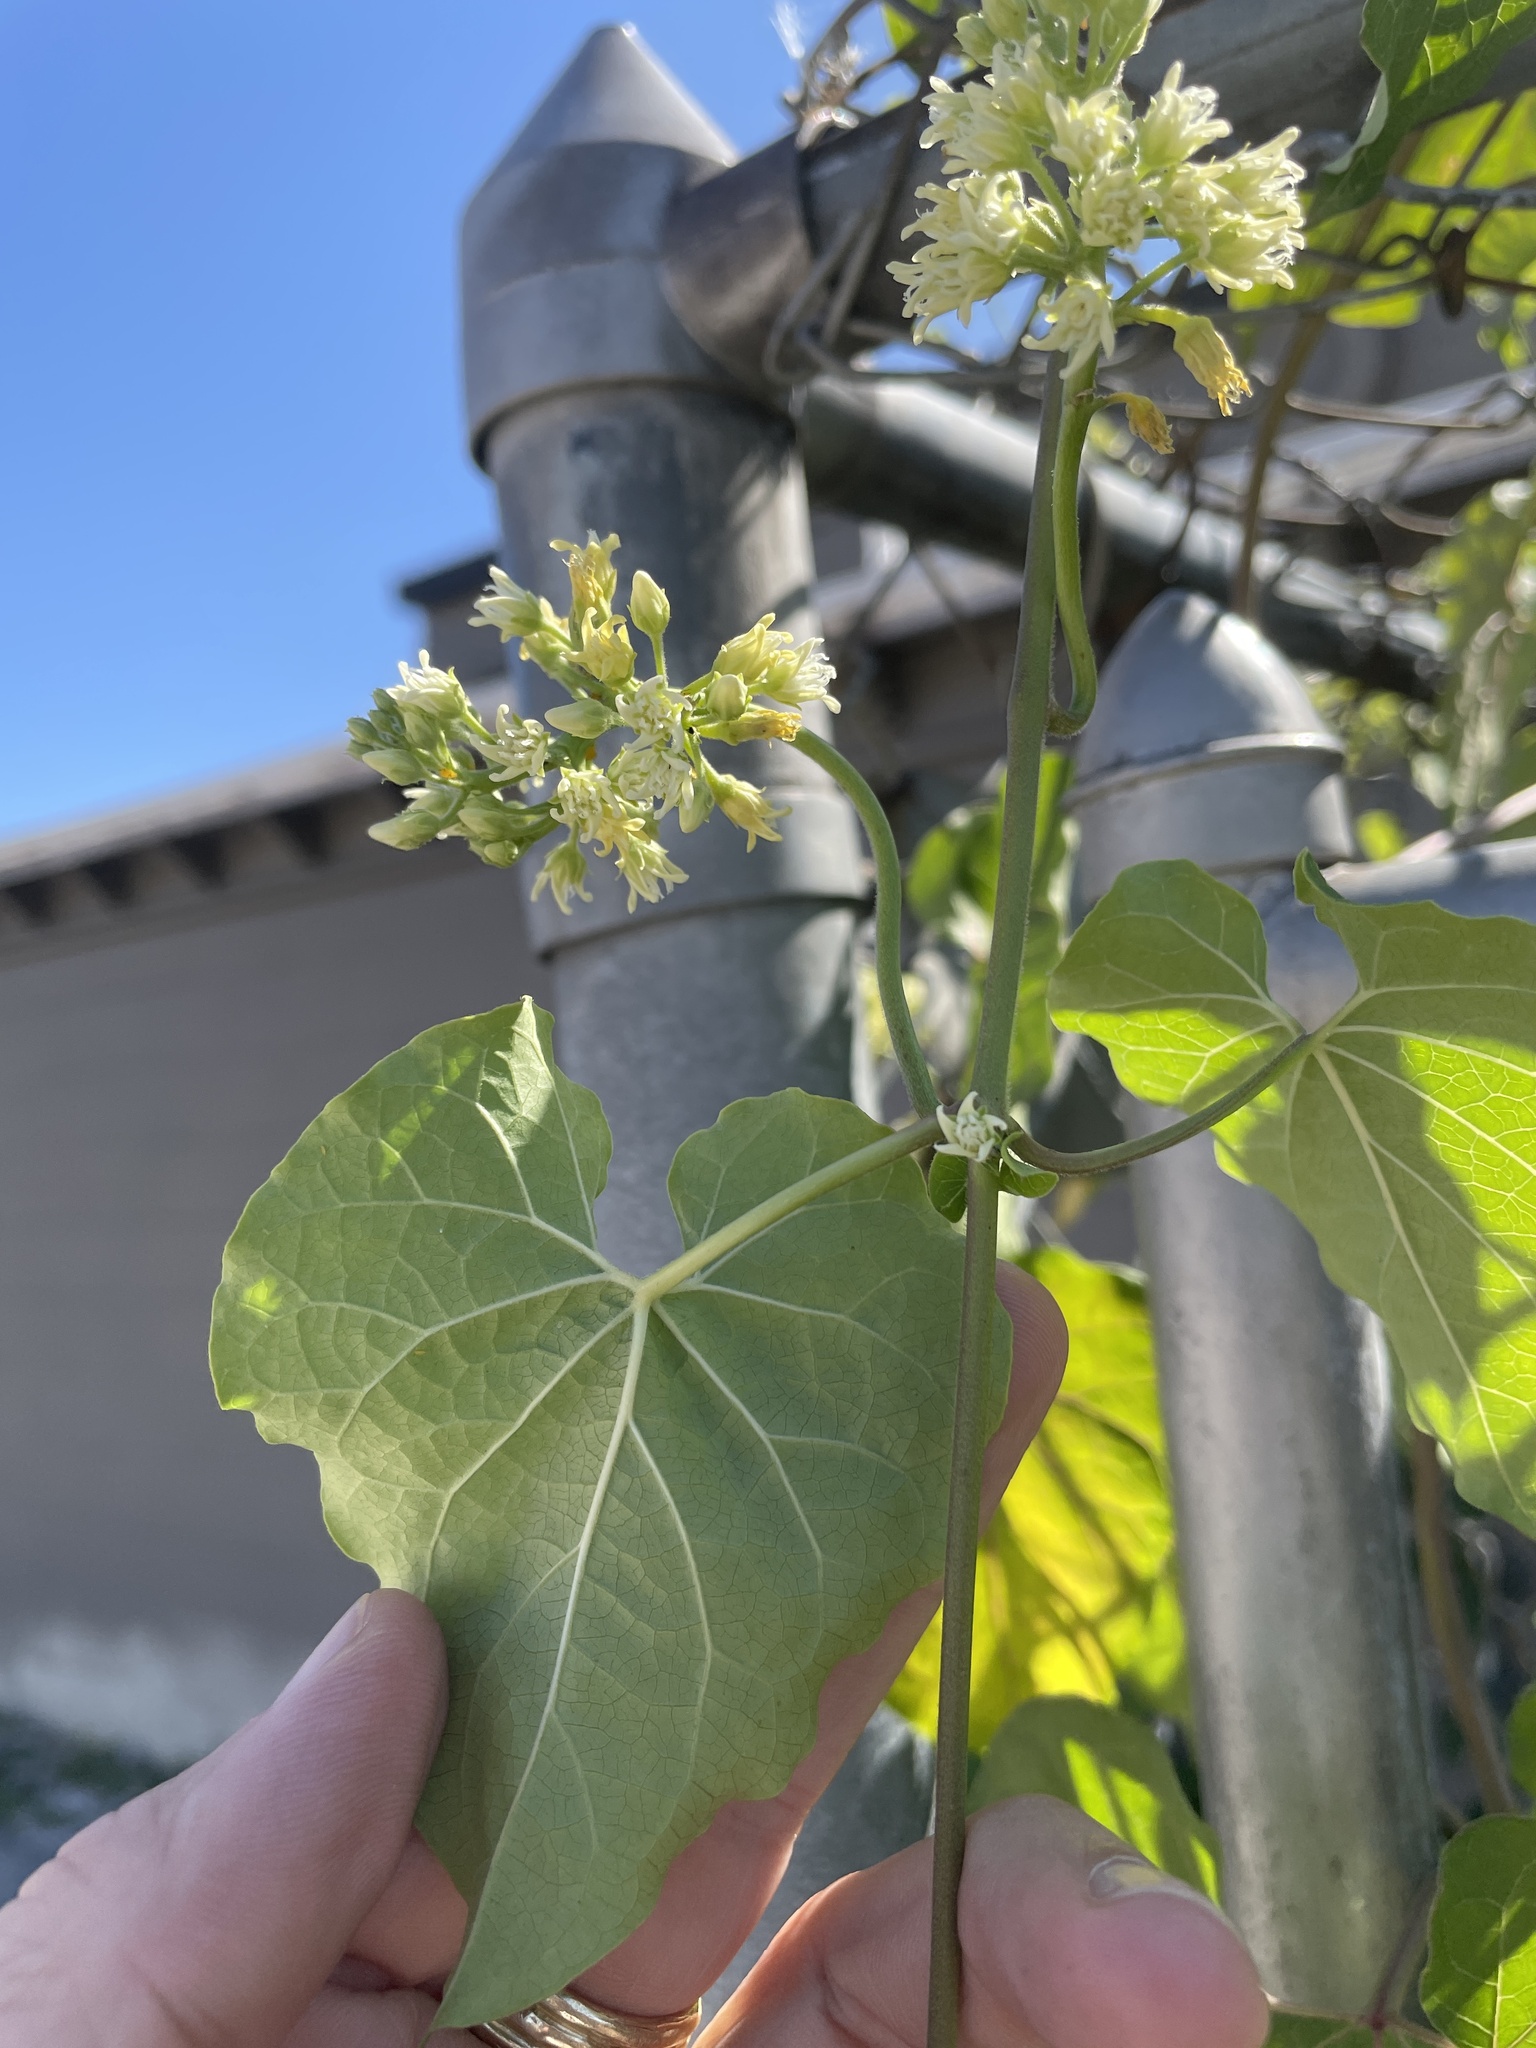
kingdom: Plantae
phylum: Tracheophyta
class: Magnoliopsida
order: Gentianales
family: Apocynaceae
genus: Cynanchum
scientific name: Cynanchum laeve
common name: Sandvine
